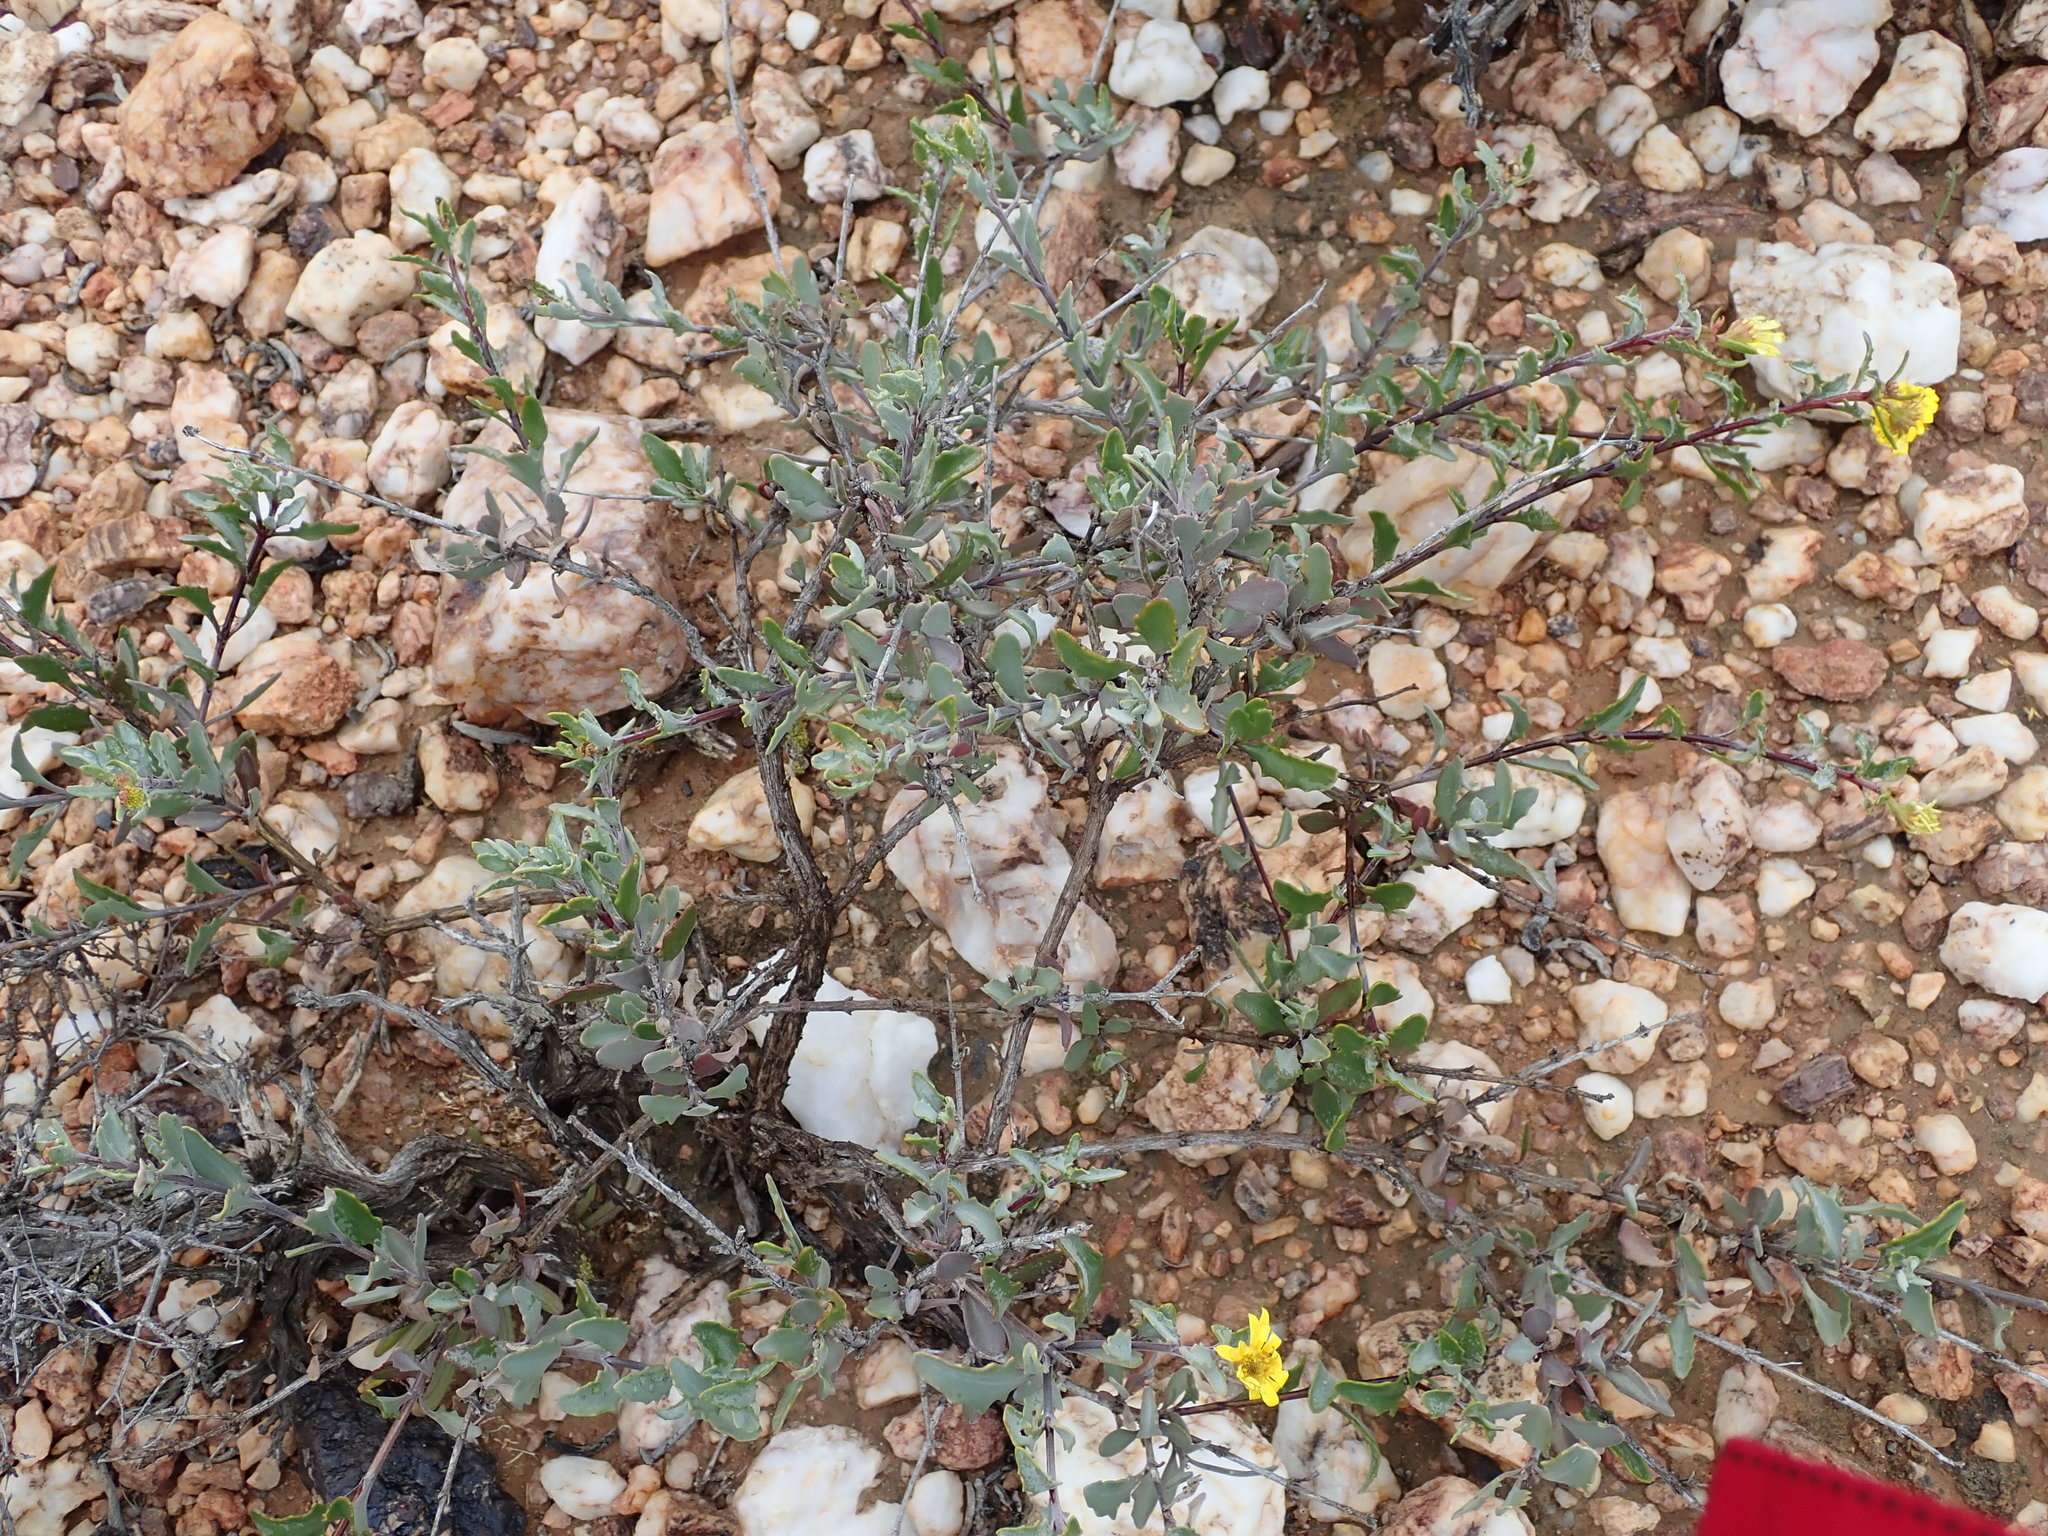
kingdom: Plantae
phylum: Tracheophyta
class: Magnoliopsida
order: Asterales
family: Asteraceae
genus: Osteospermum
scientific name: Osteospermum sinuatum
